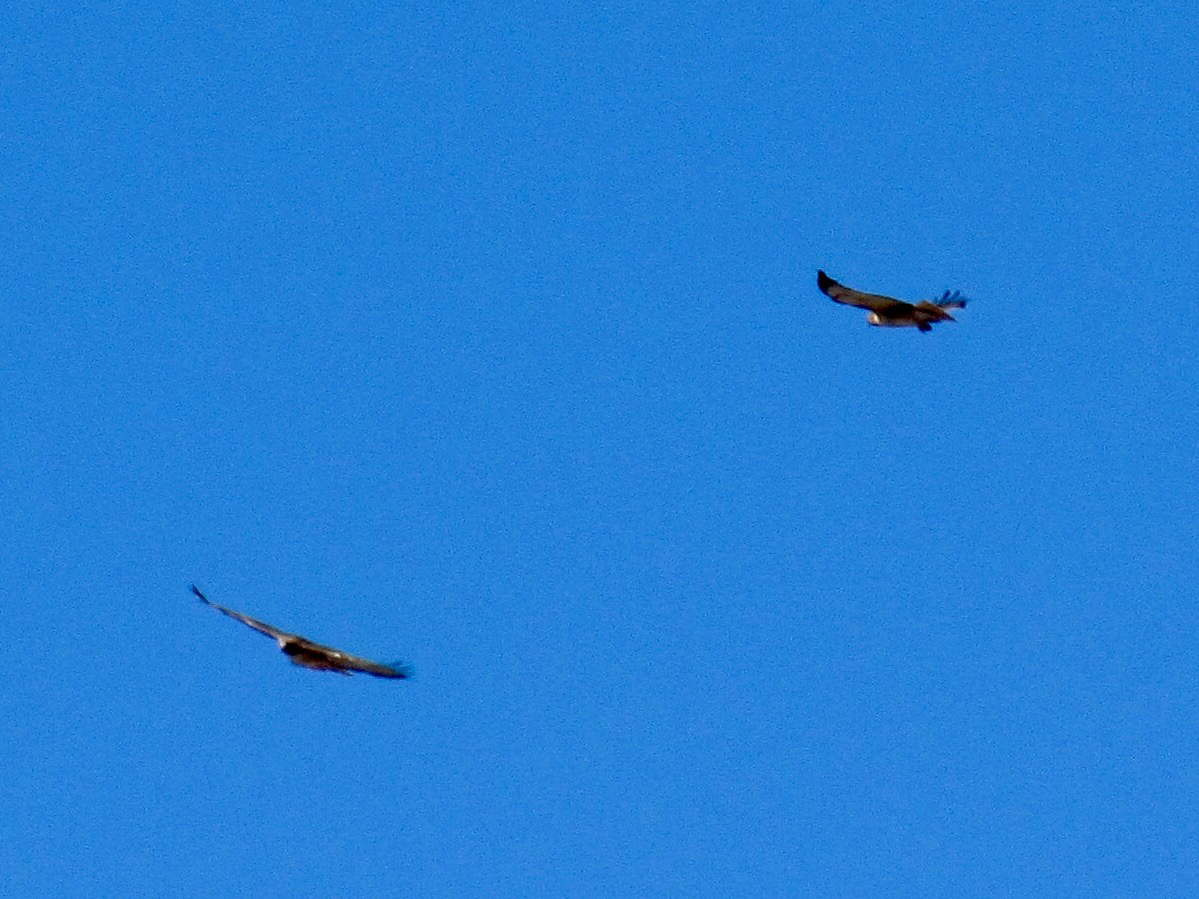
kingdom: Animalia
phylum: Chordata
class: Aves
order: Accipitriformes
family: Accipitridae
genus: Buteo
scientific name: Buteo jamaicensis
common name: Red-tailed hawk
